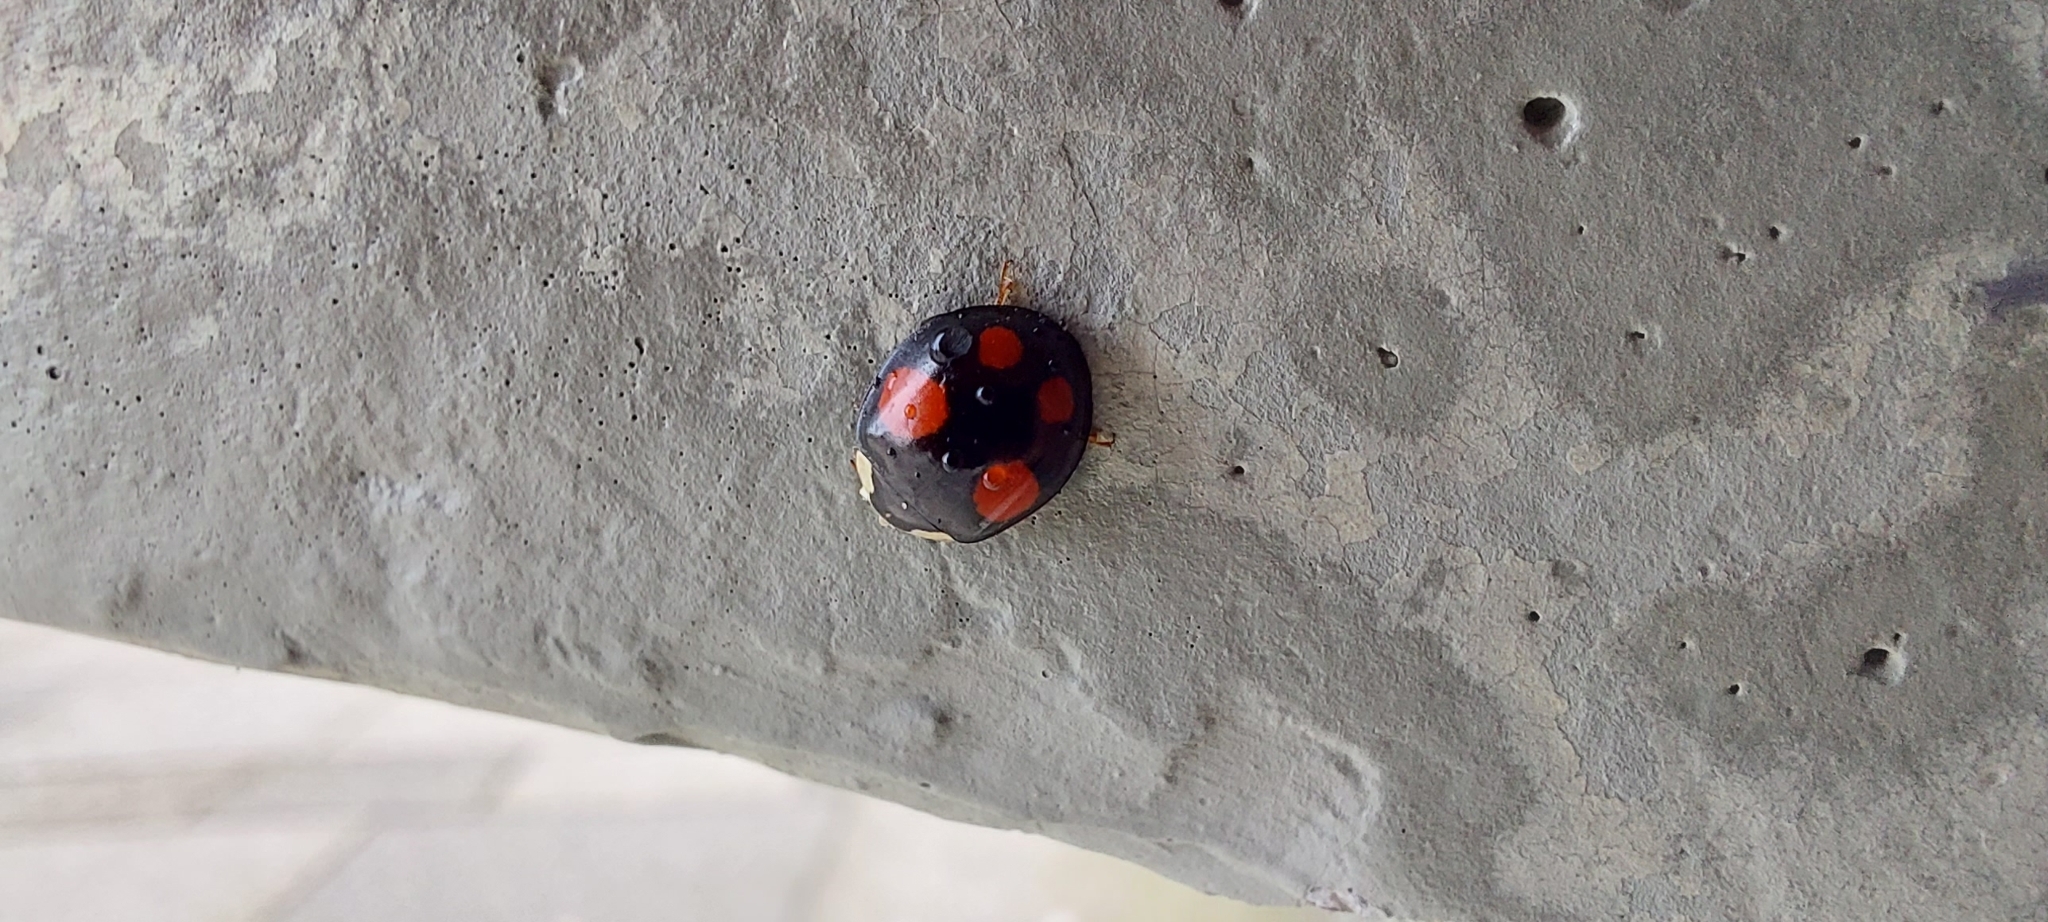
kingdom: Animalia
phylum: Arthropoda
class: Insecta
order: Coleoptera
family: Coccinellidae
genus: Harmonia
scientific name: Harmonia axyridis
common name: Harlequin ladybird
